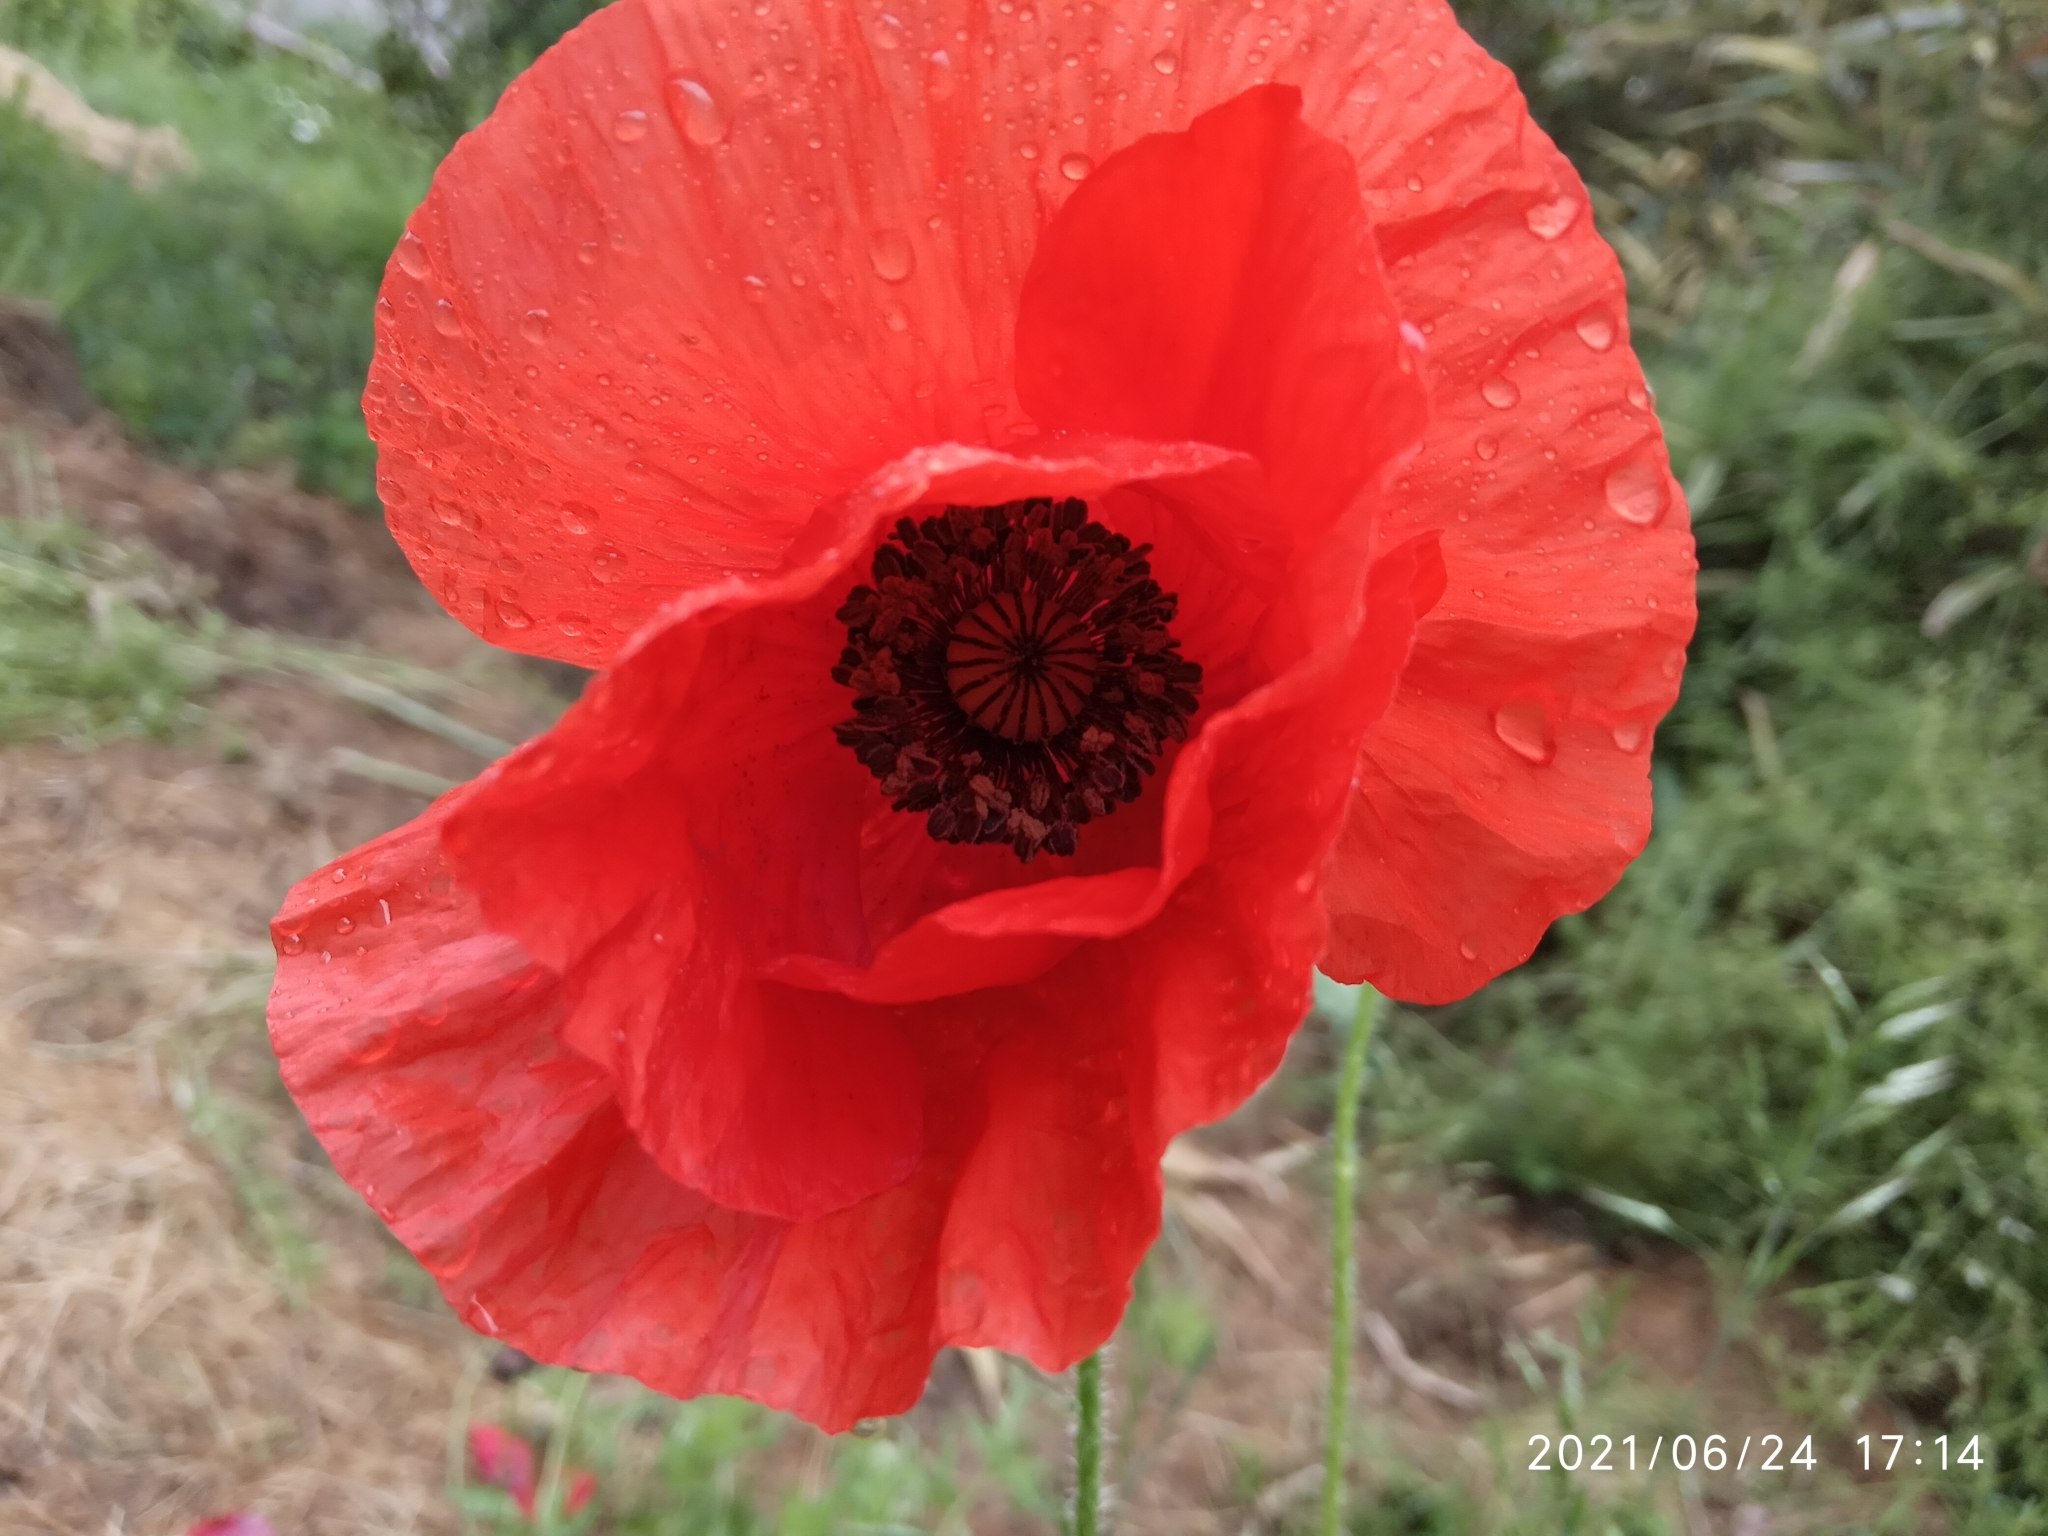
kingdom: Plantae
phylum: Tracheophyta
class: Magnoliopsida
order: Ranunculales
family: Papaveraceae
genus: Papaver
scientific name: Papaver rhoeas
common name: Corn poppy
